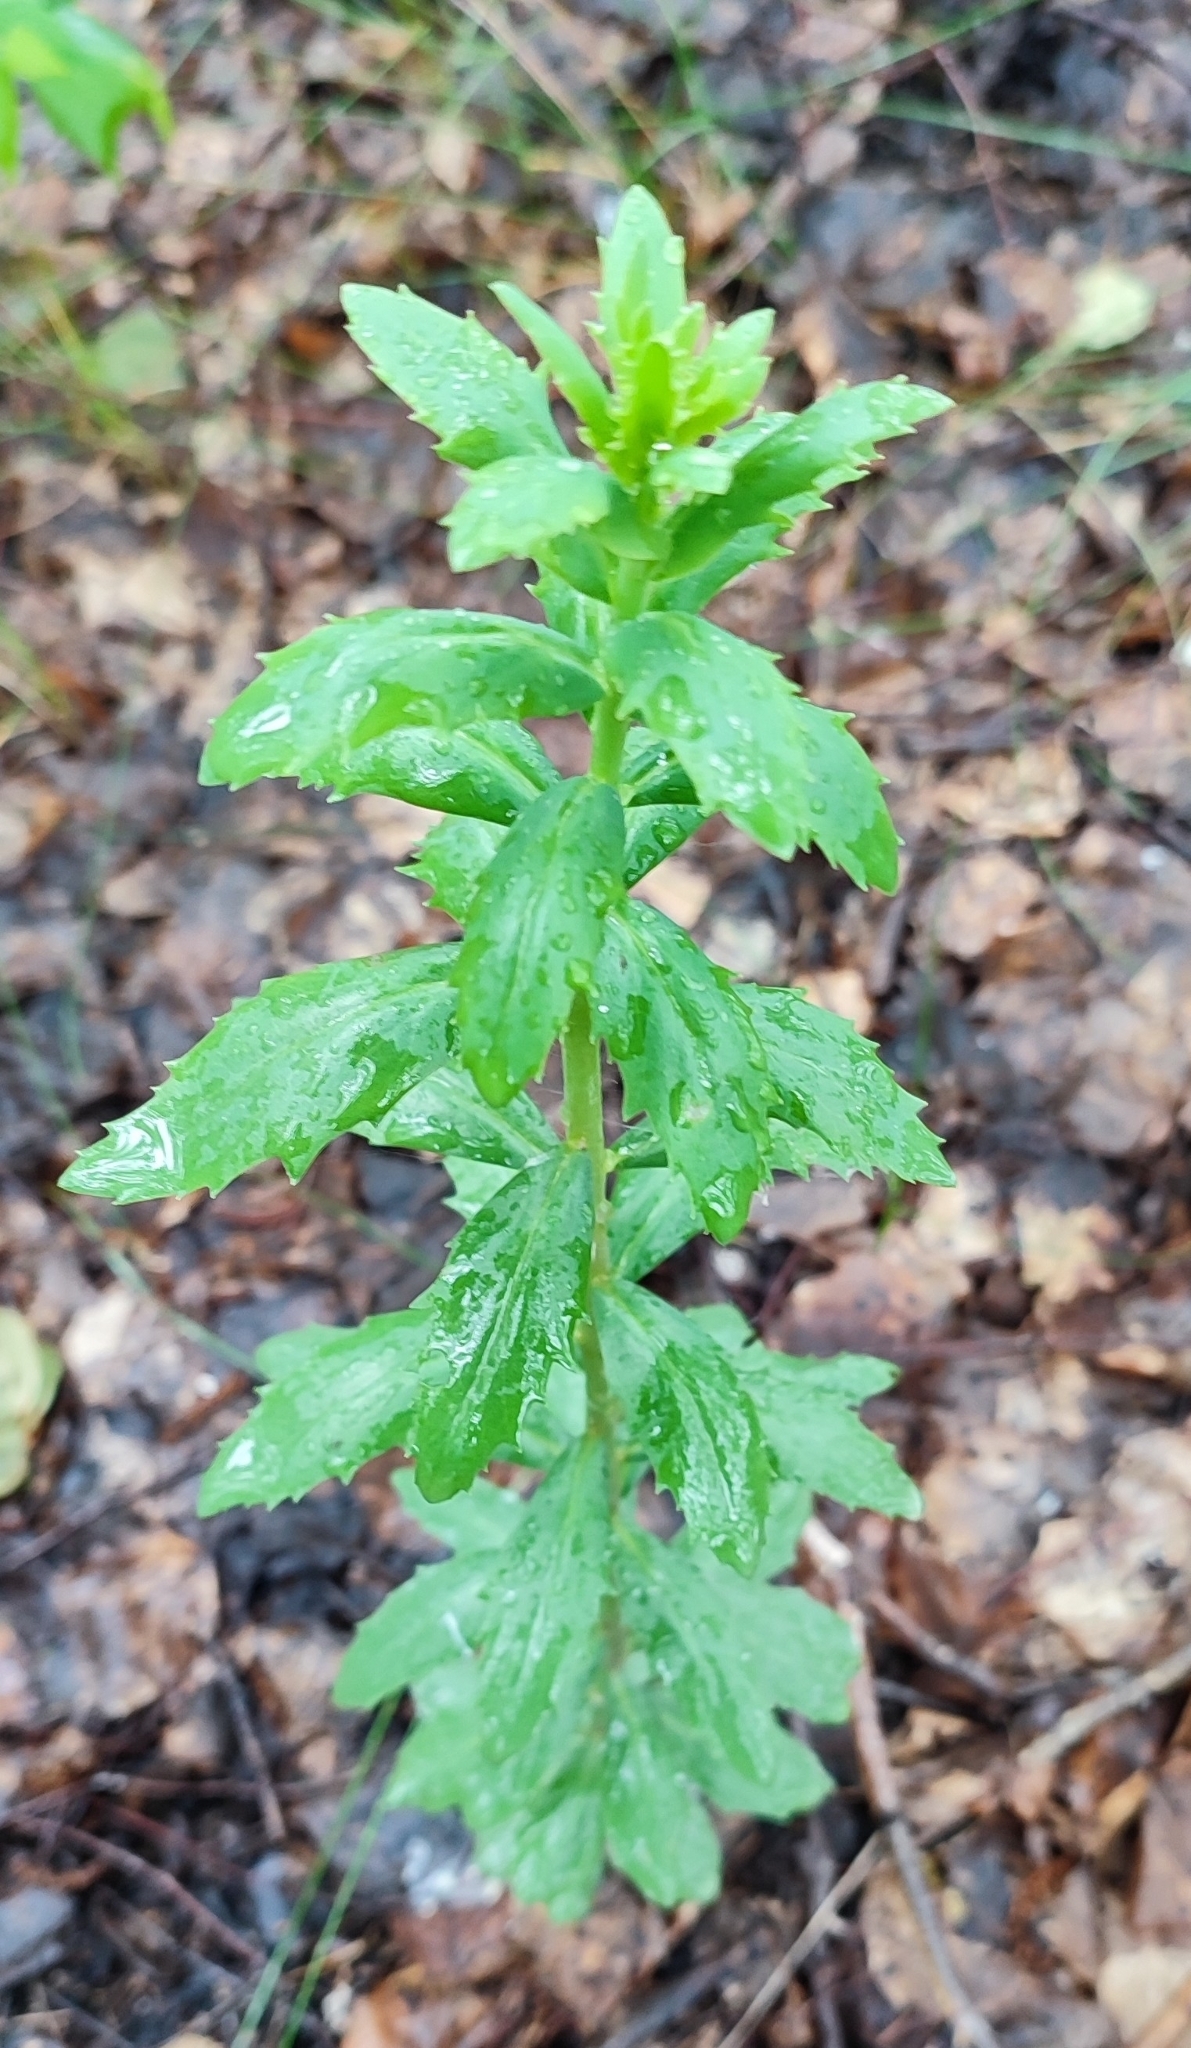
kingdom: Plantae
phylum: Tracheophyta
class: Magnoliopsida
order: Saxifragales
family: Crassulaceae
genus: Hylotelephium
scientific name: Hylotelephium telephium
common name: Live-forever
